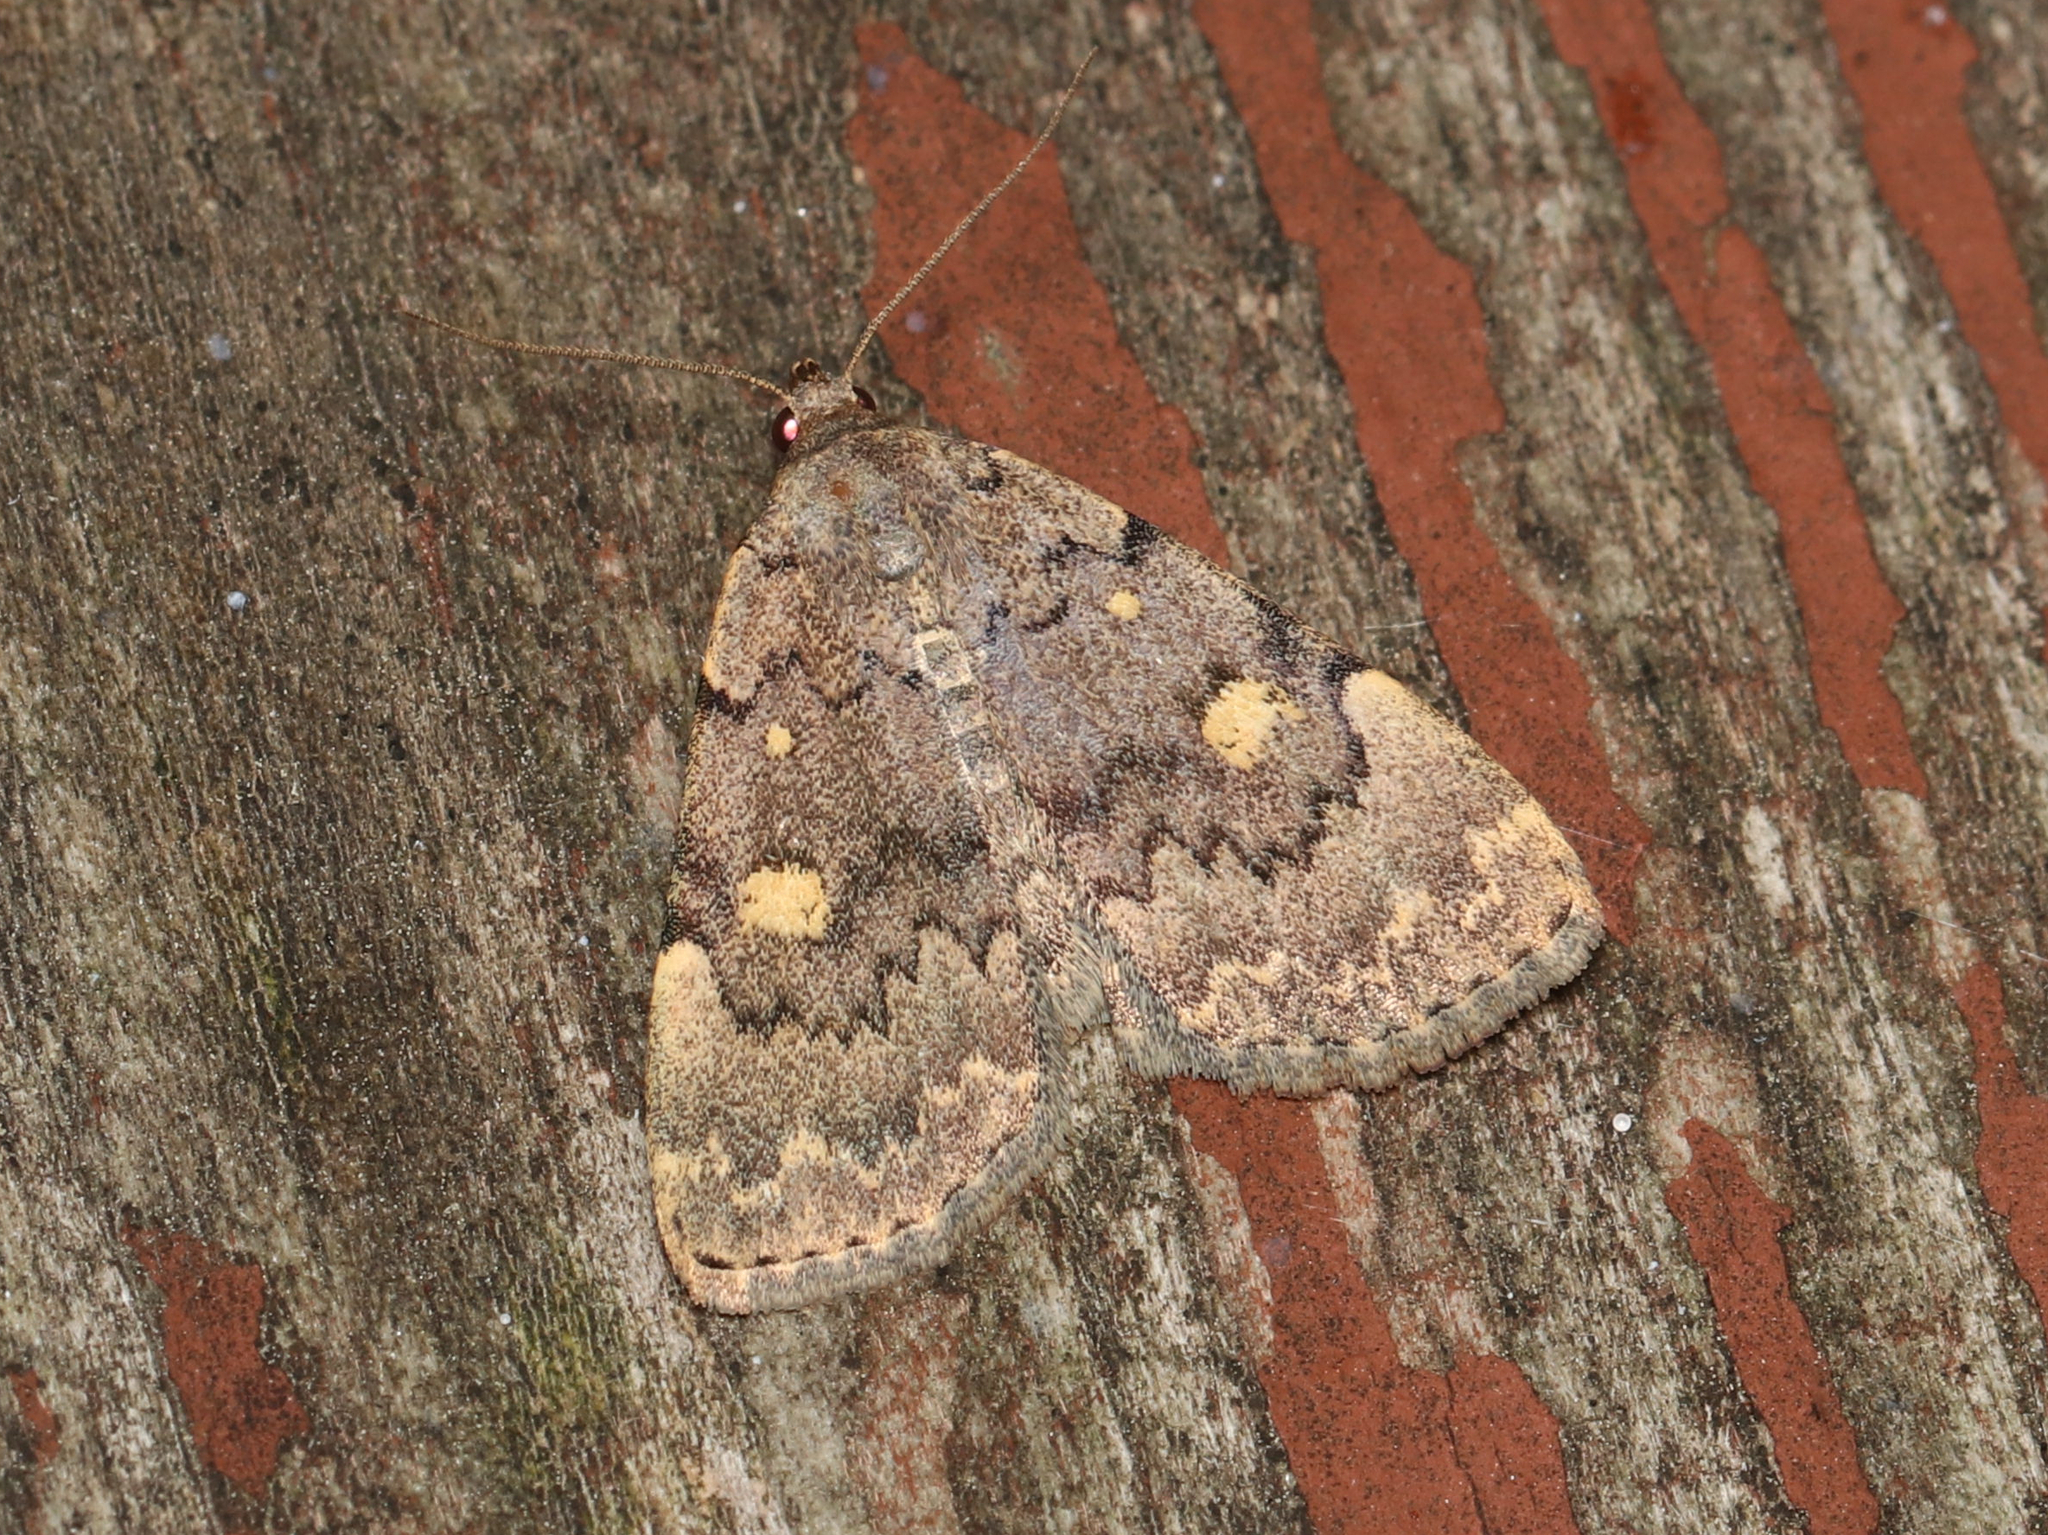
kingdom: Animalia
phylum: Arthropoda
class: Insecta
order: Lepidoptera
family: Erebidae
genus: Idia
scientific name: Idia aemula
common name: Common idia moth
